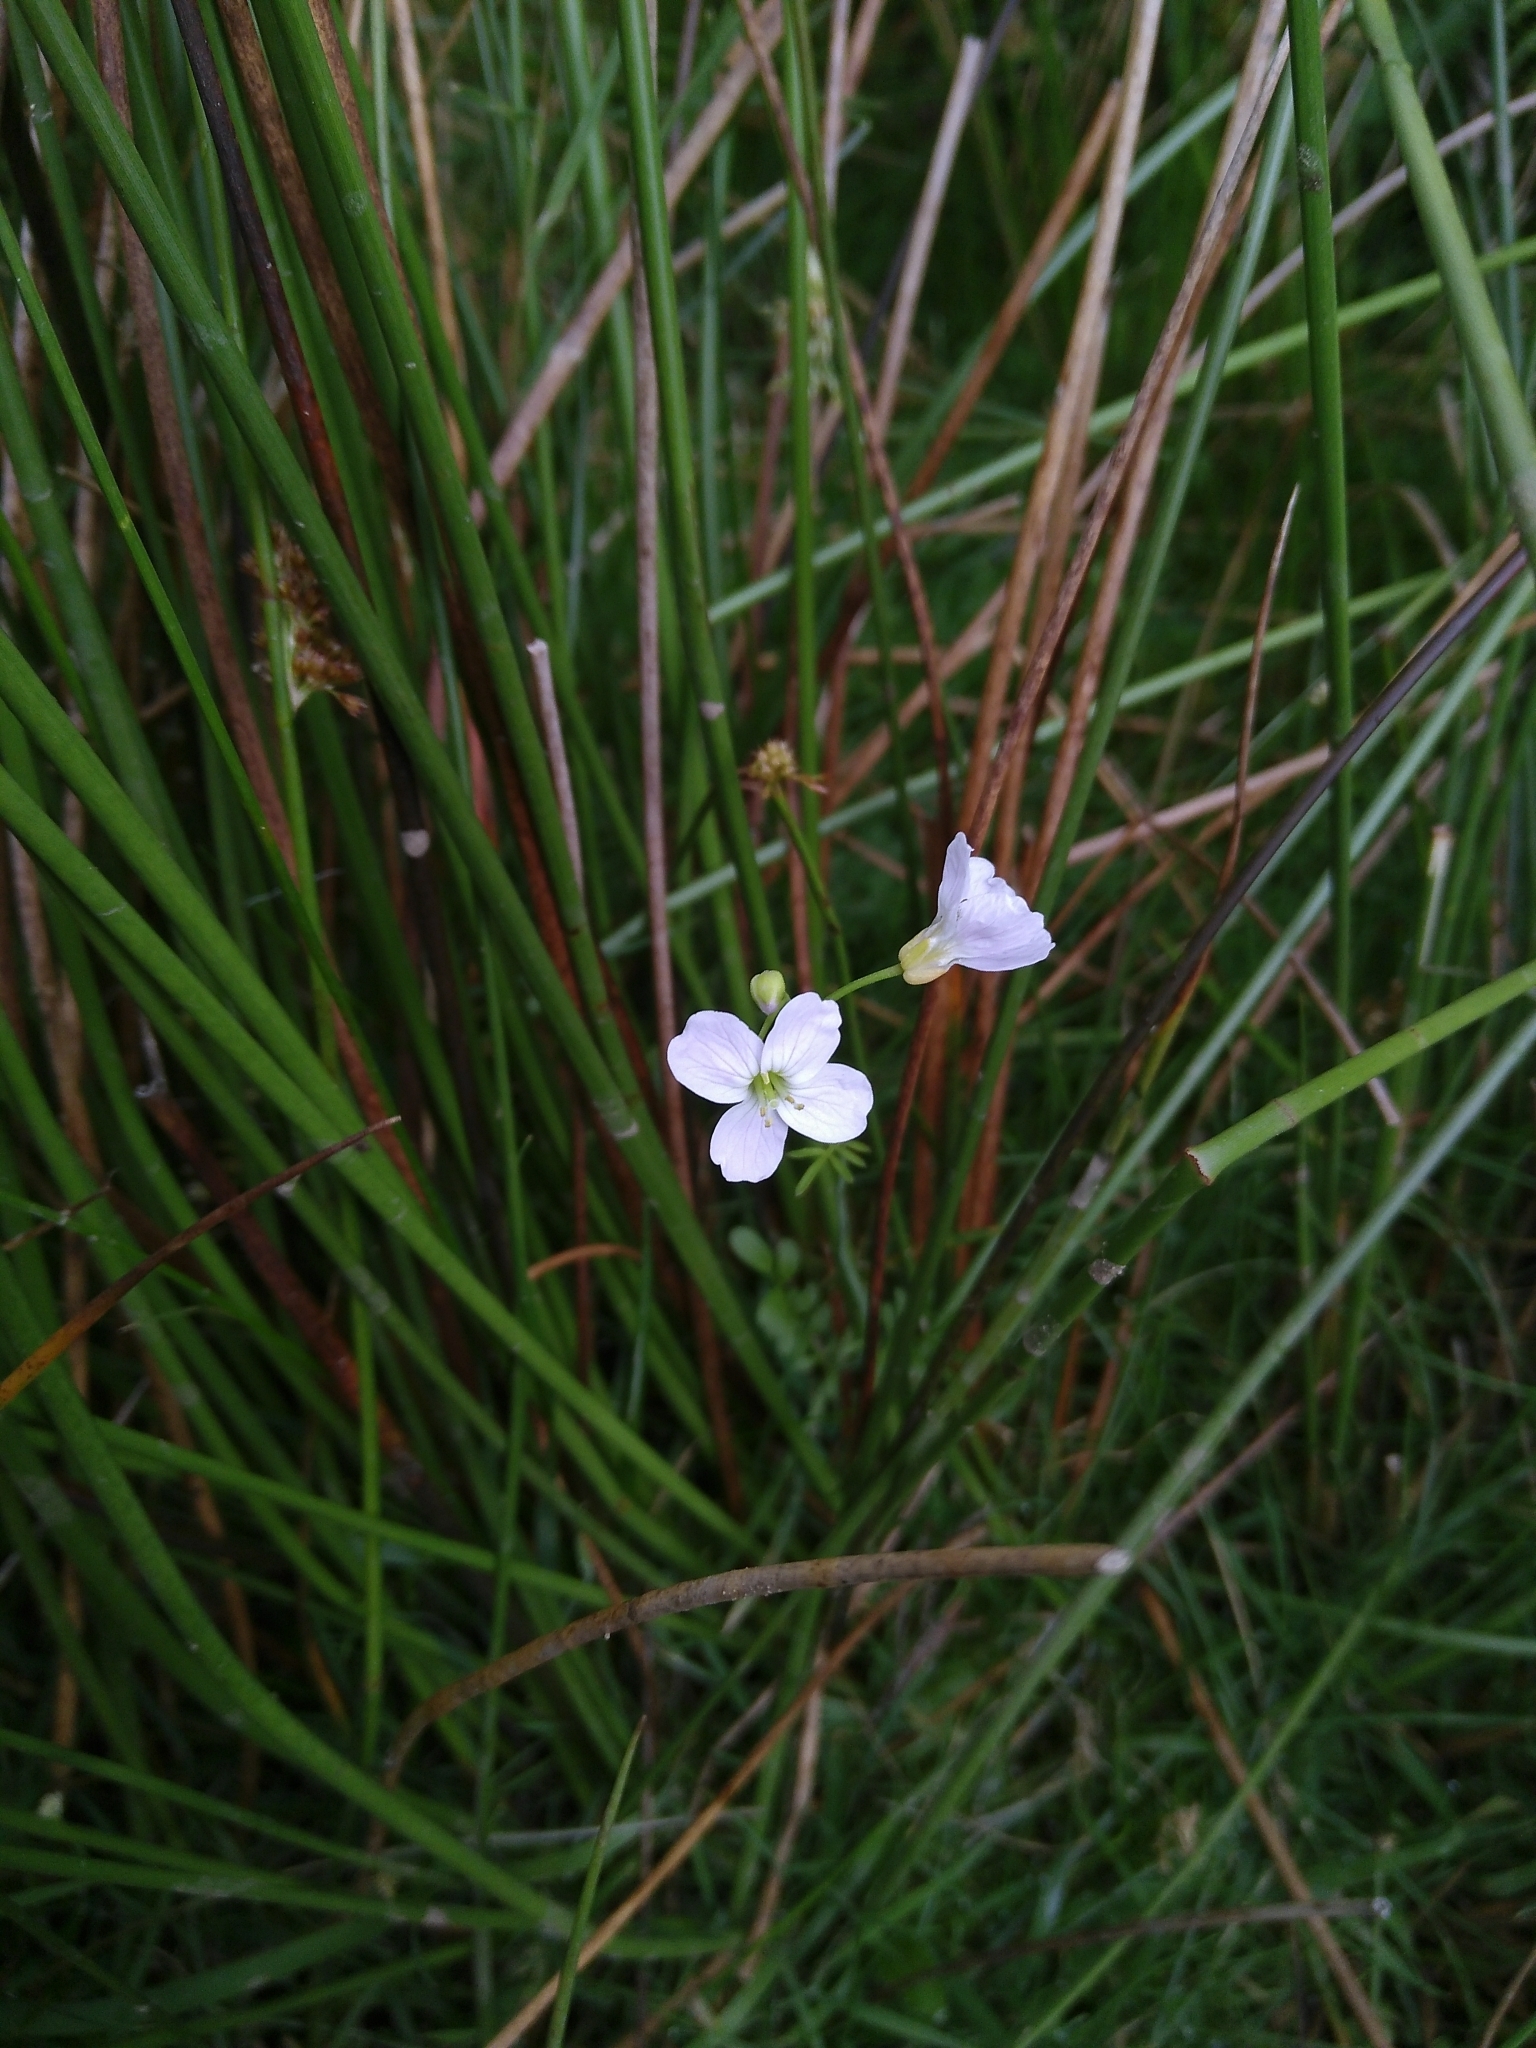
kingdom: Plantae
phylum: Tracheophyta
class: Magnoliopsida
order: Brassicales
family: Brassicaceae
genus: Cardamine
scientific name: Cardamine pratensis
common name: Cuckoo flower
